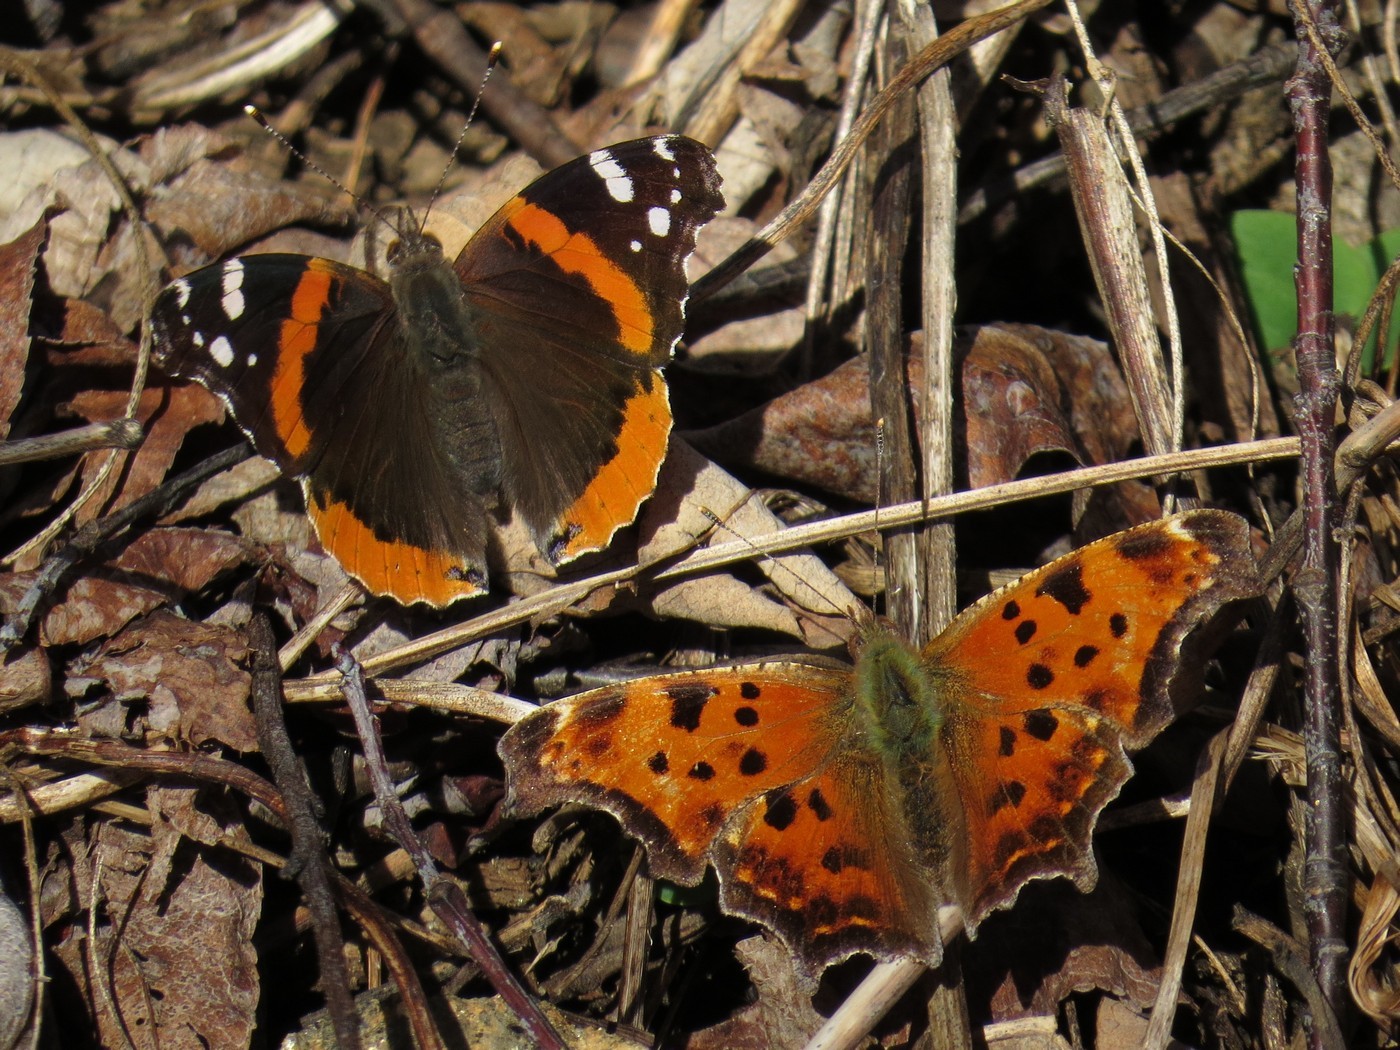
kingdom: Animalia
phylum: Arthropoda
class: Insecta
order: Lepidoptera
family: Nymphalidae
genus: Vanessa
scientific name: Vanessa atalanta
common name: Red admiral
